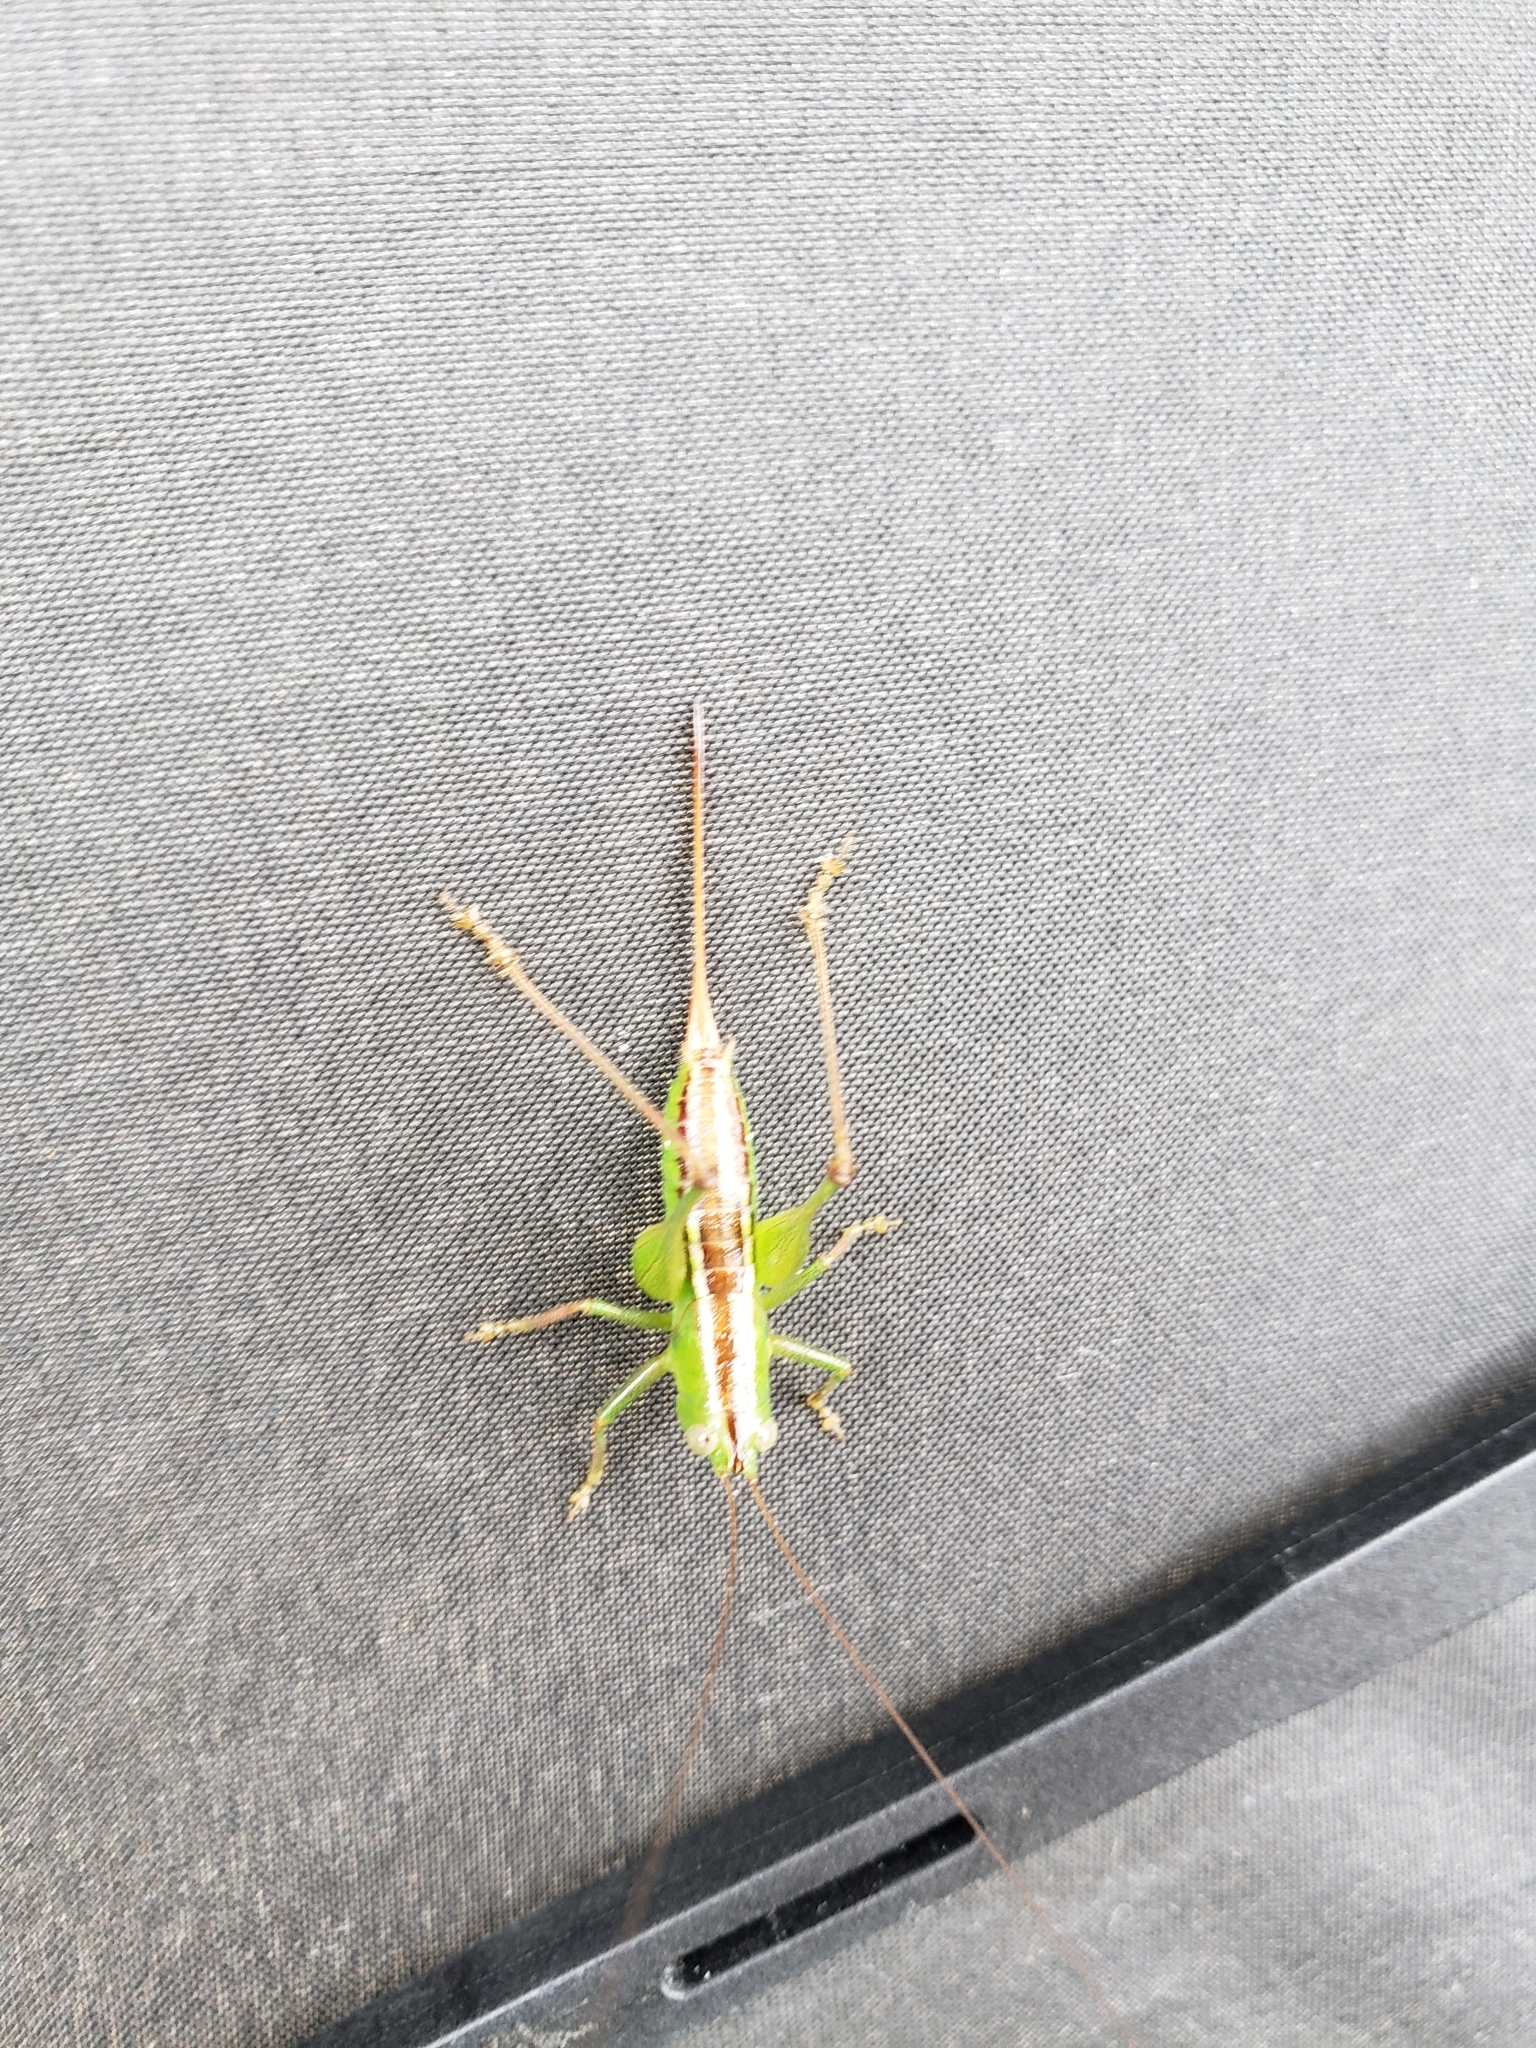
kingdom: Animalia
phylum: Arthropoda
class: Insecta
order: Orthoptera
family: Tettigoniidae
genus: Odontoxiphidium
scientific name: Odontoxiphidium apterum
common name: Wingless meadow katydid
